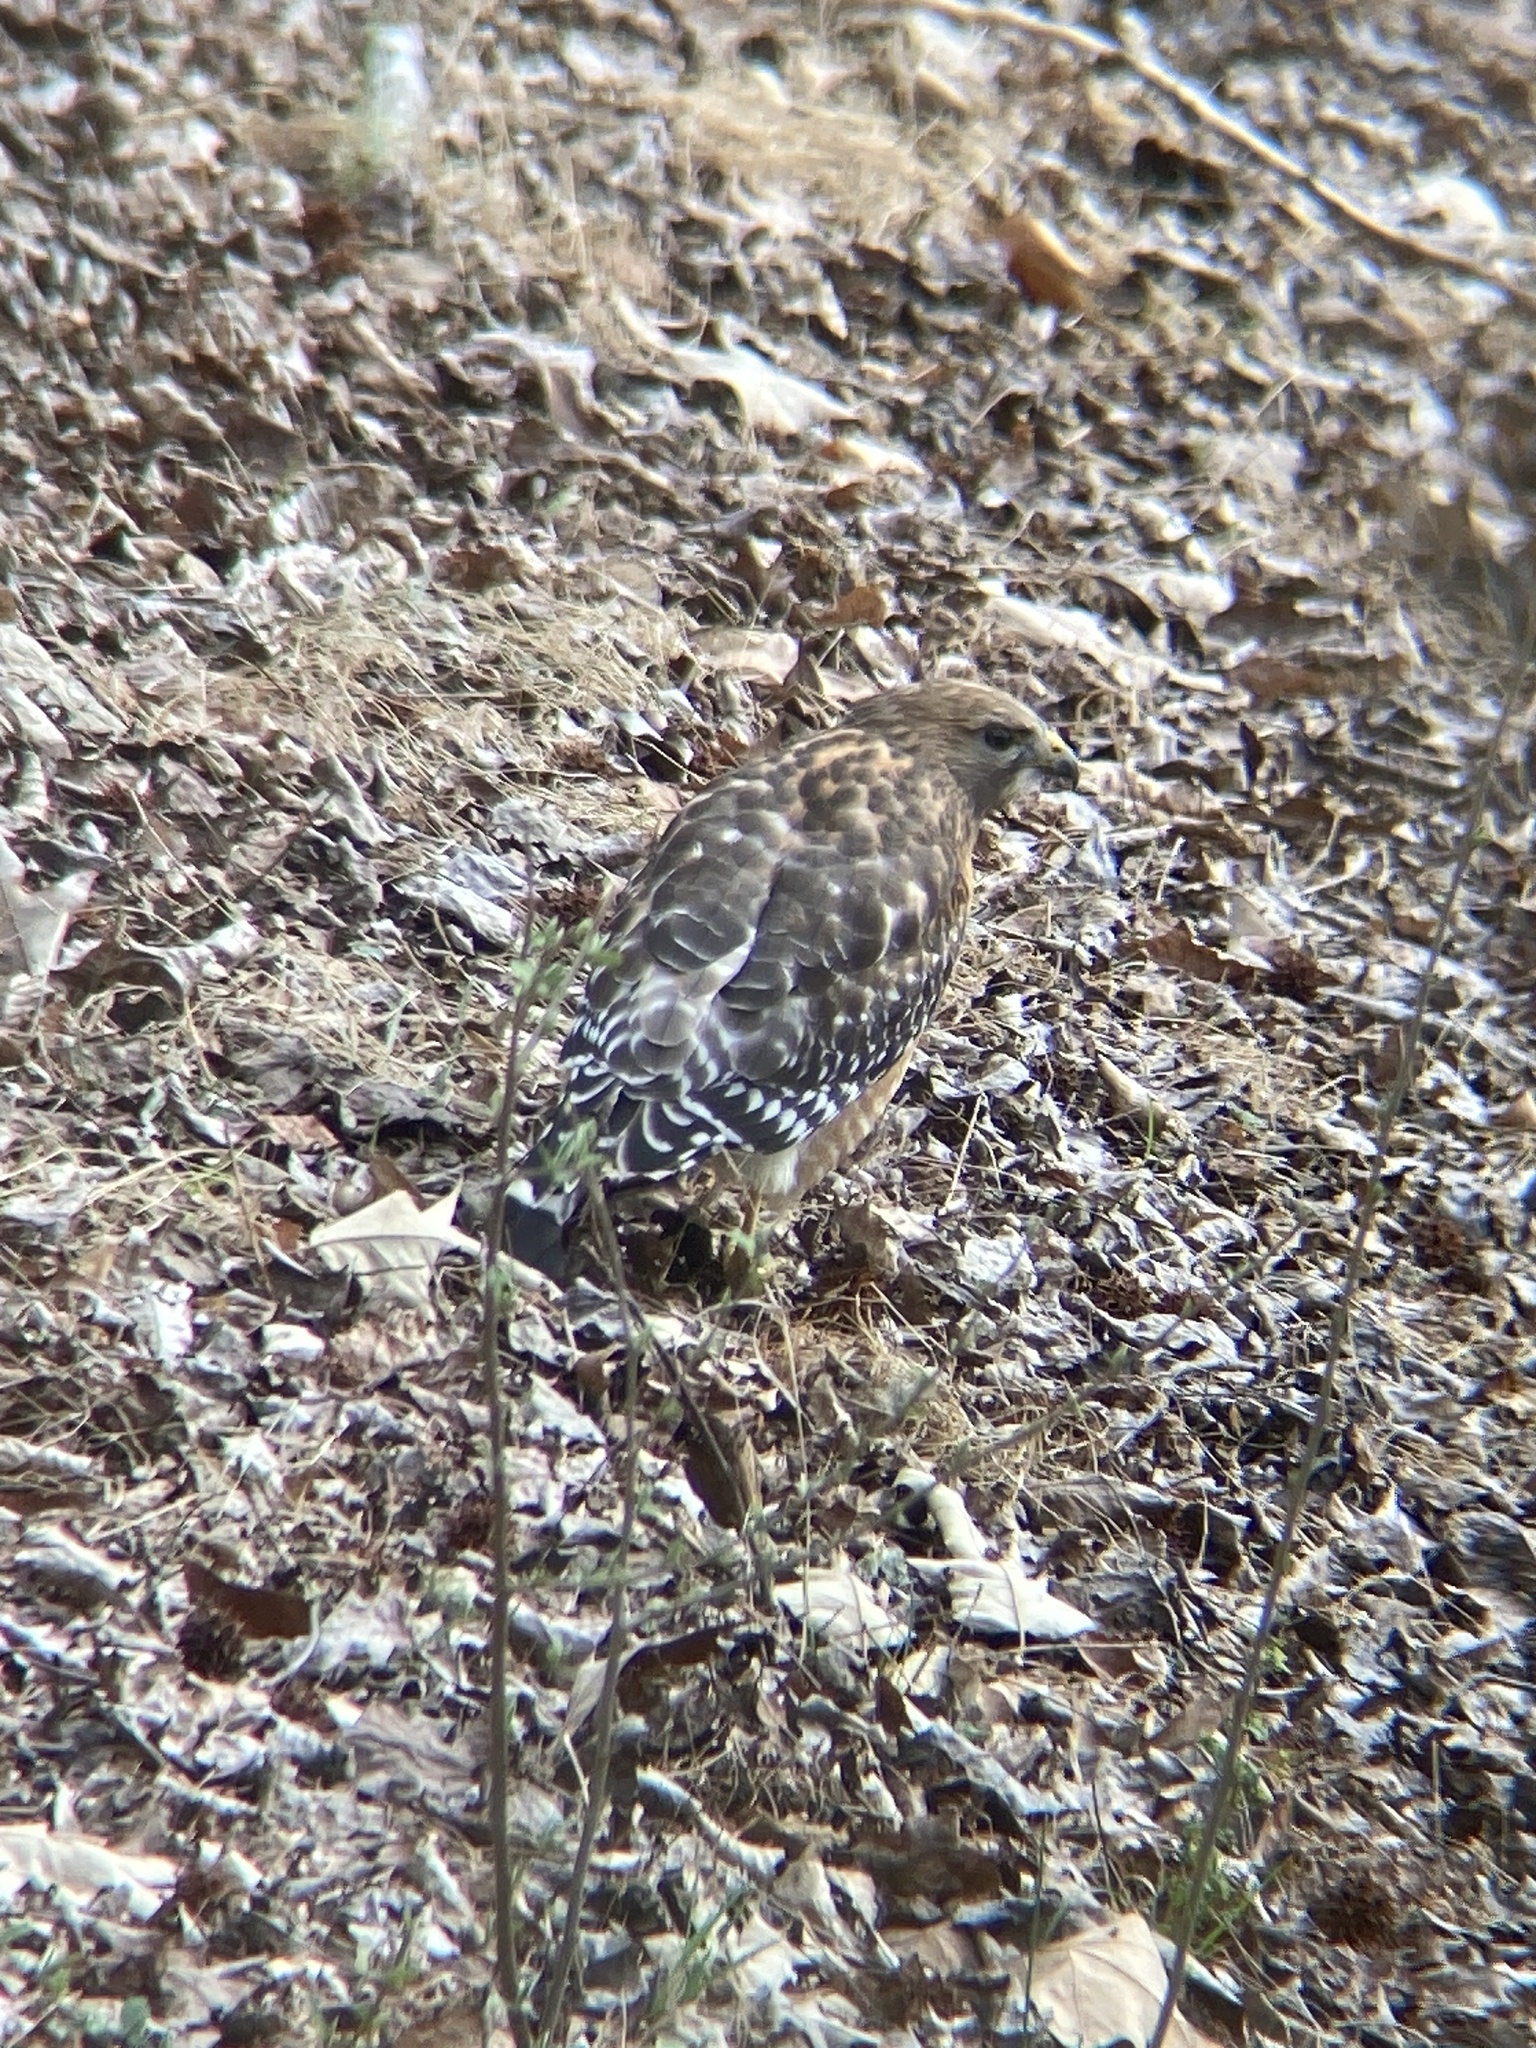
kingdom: Animalia
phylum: Chordata
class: Aves
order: Accipitriformes
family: Accipitridae
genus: Buteo
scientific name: Buteo lineatus
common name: Red-shouldered hawk
